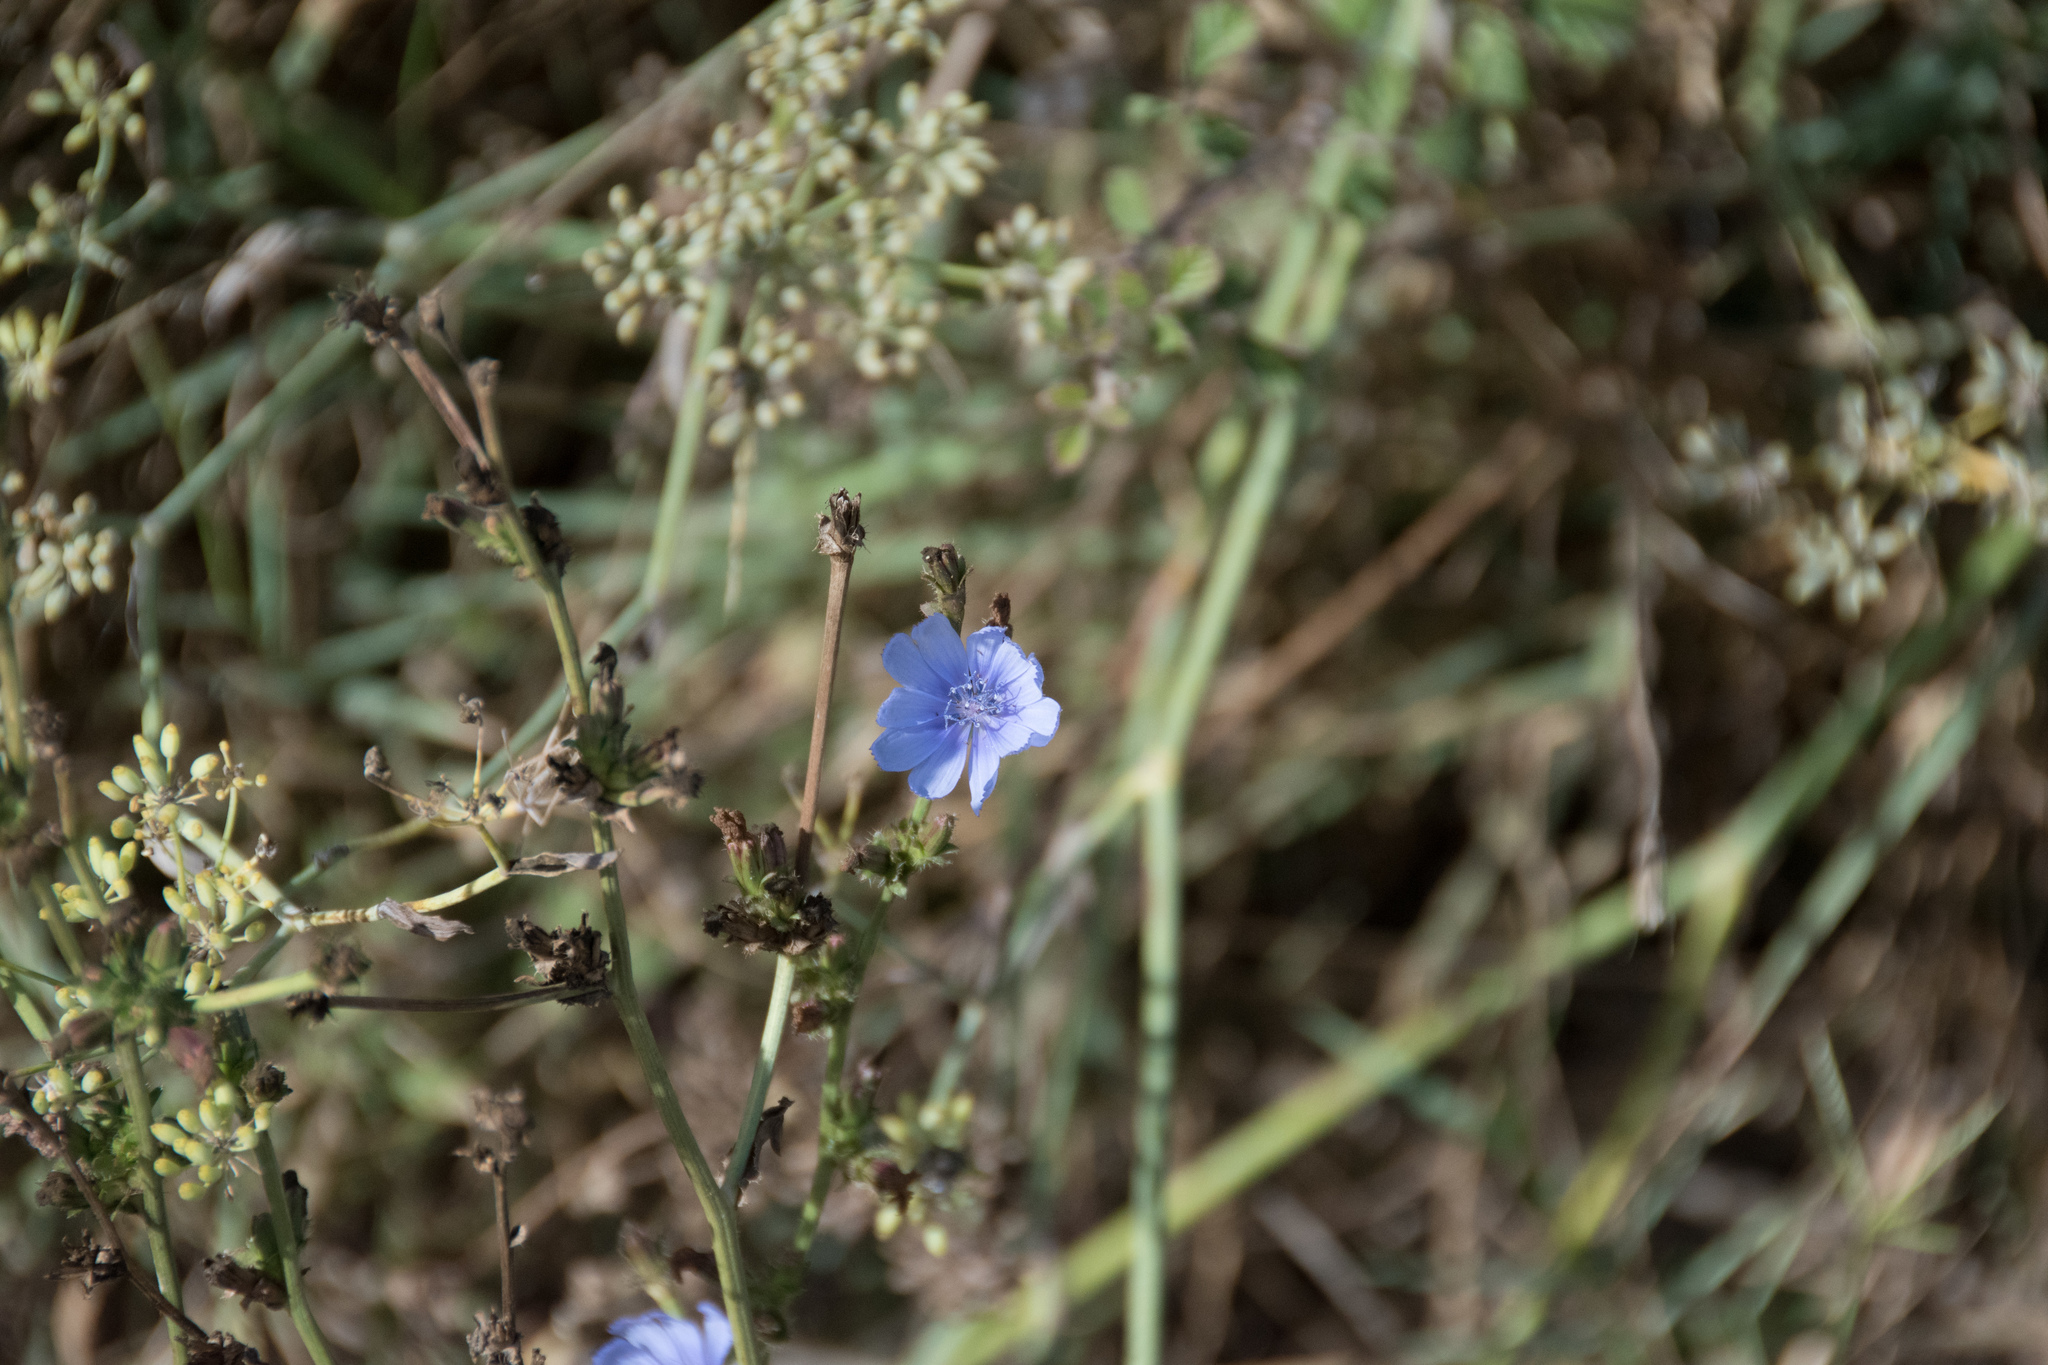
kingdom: Plantae
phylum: Tracheophyta
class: Magnoliopsida
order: Asterales
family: Asteraceae
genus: Cichorium
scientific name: Cichorium intybus
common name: Chicory
